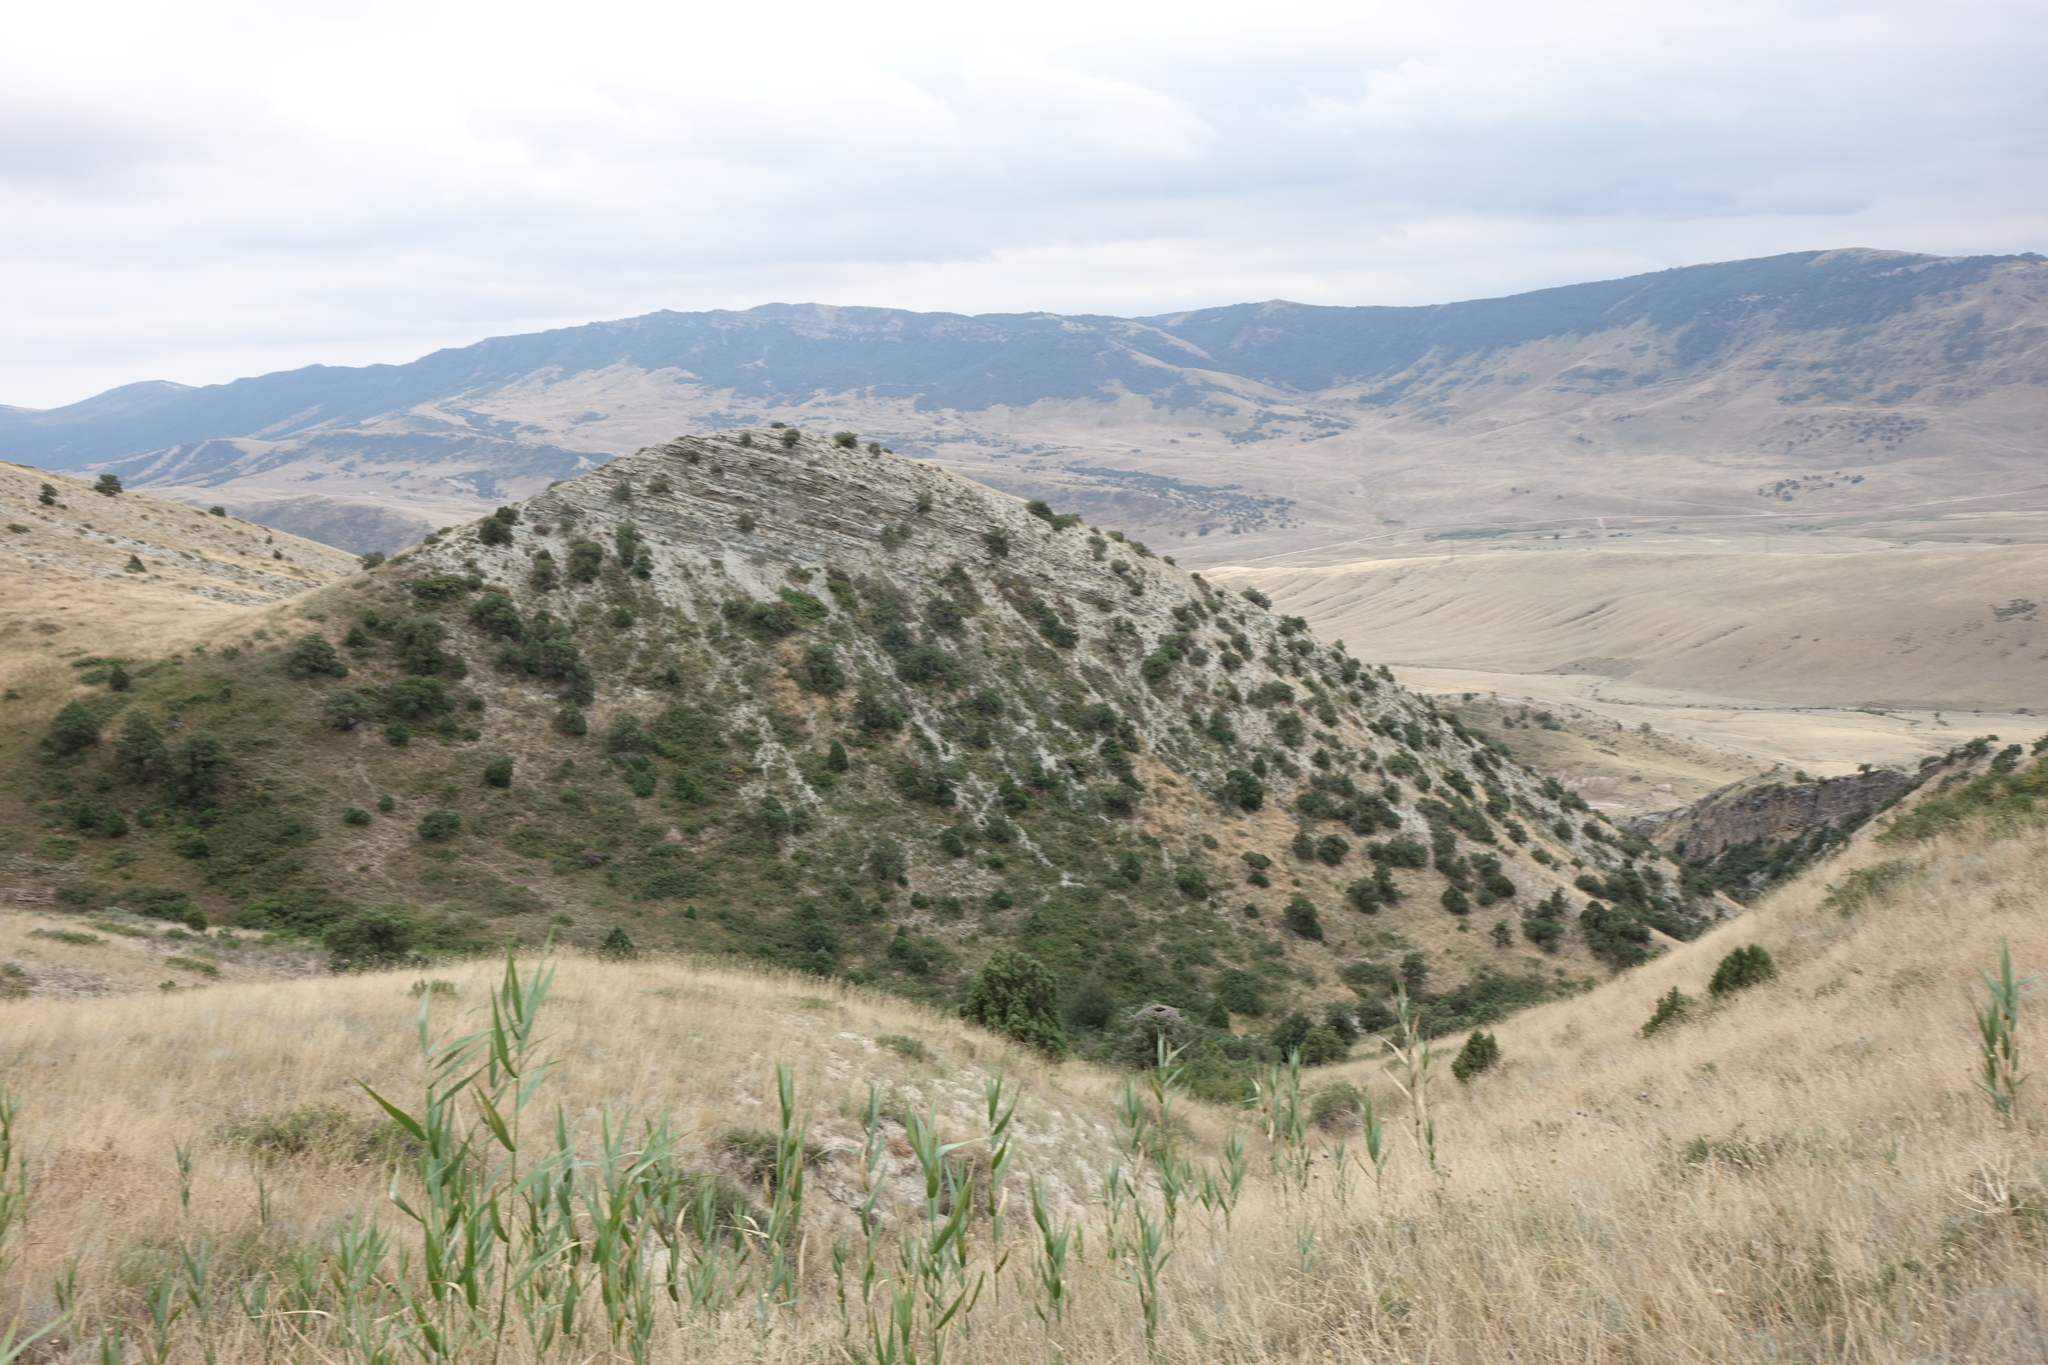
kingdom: Plantae
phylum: Tracheophyta
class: Liliopsida
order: Poales
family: Poaceae
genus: Phragmites
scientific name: Phragmites australis
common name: Common reed
